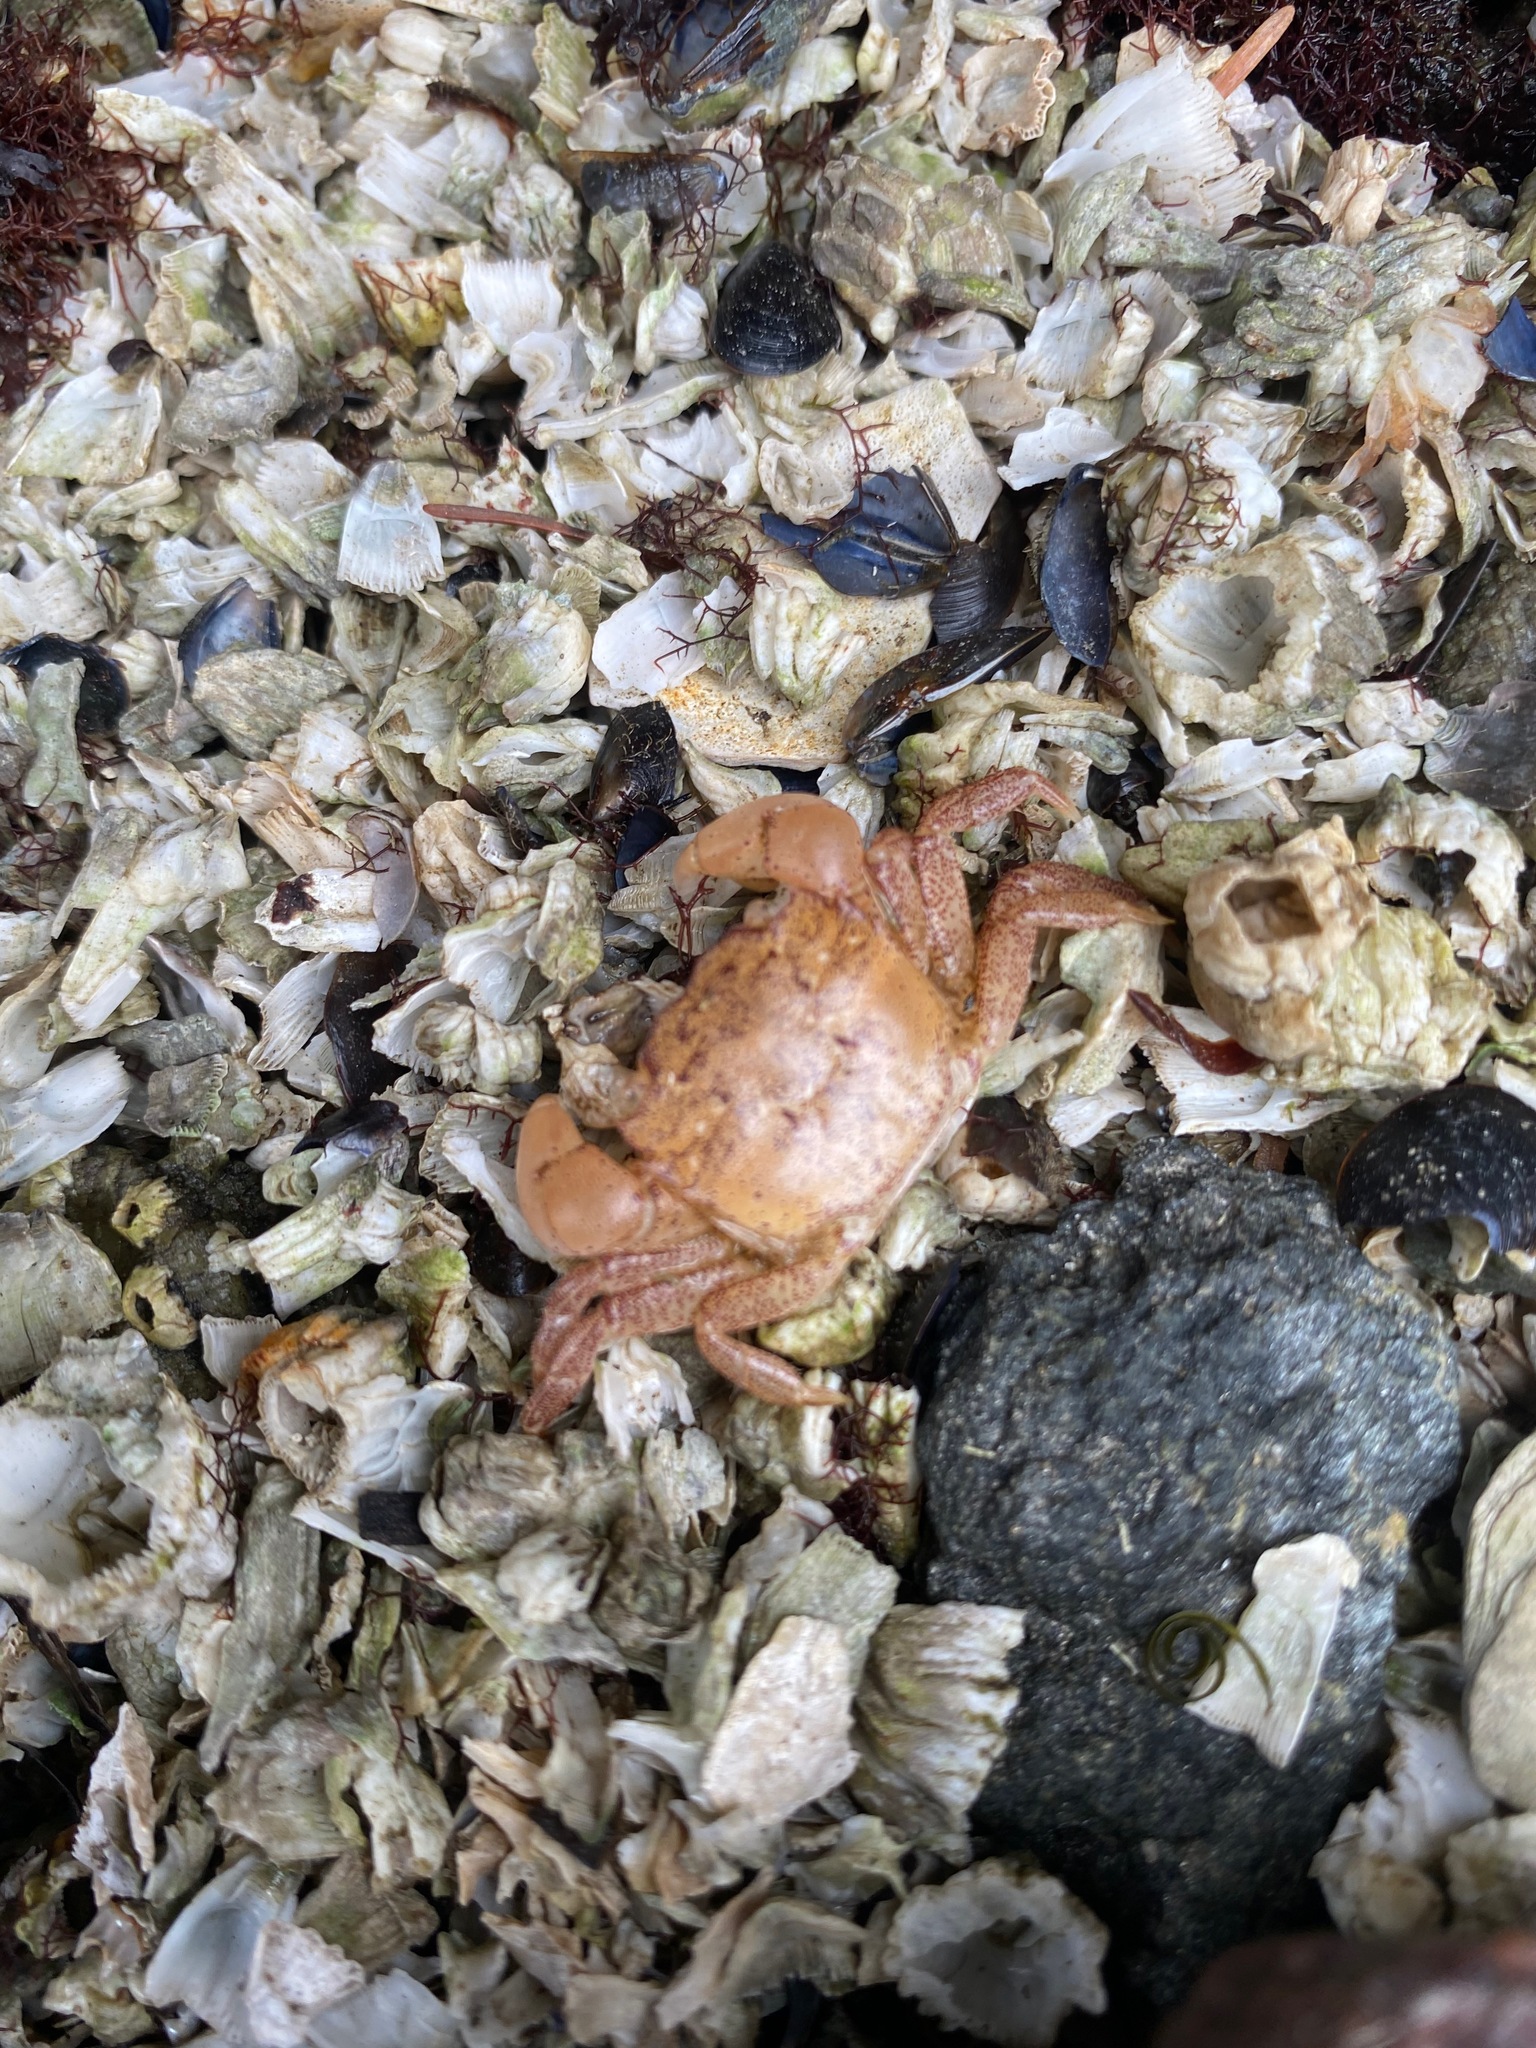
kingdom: Animalia
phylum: Arthropoda
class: Malacostraca
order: Decapoda
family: Varunidae
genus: Hemigrapsus
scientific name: Hemigrapsus oregonensis
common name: Yellow shore crab
